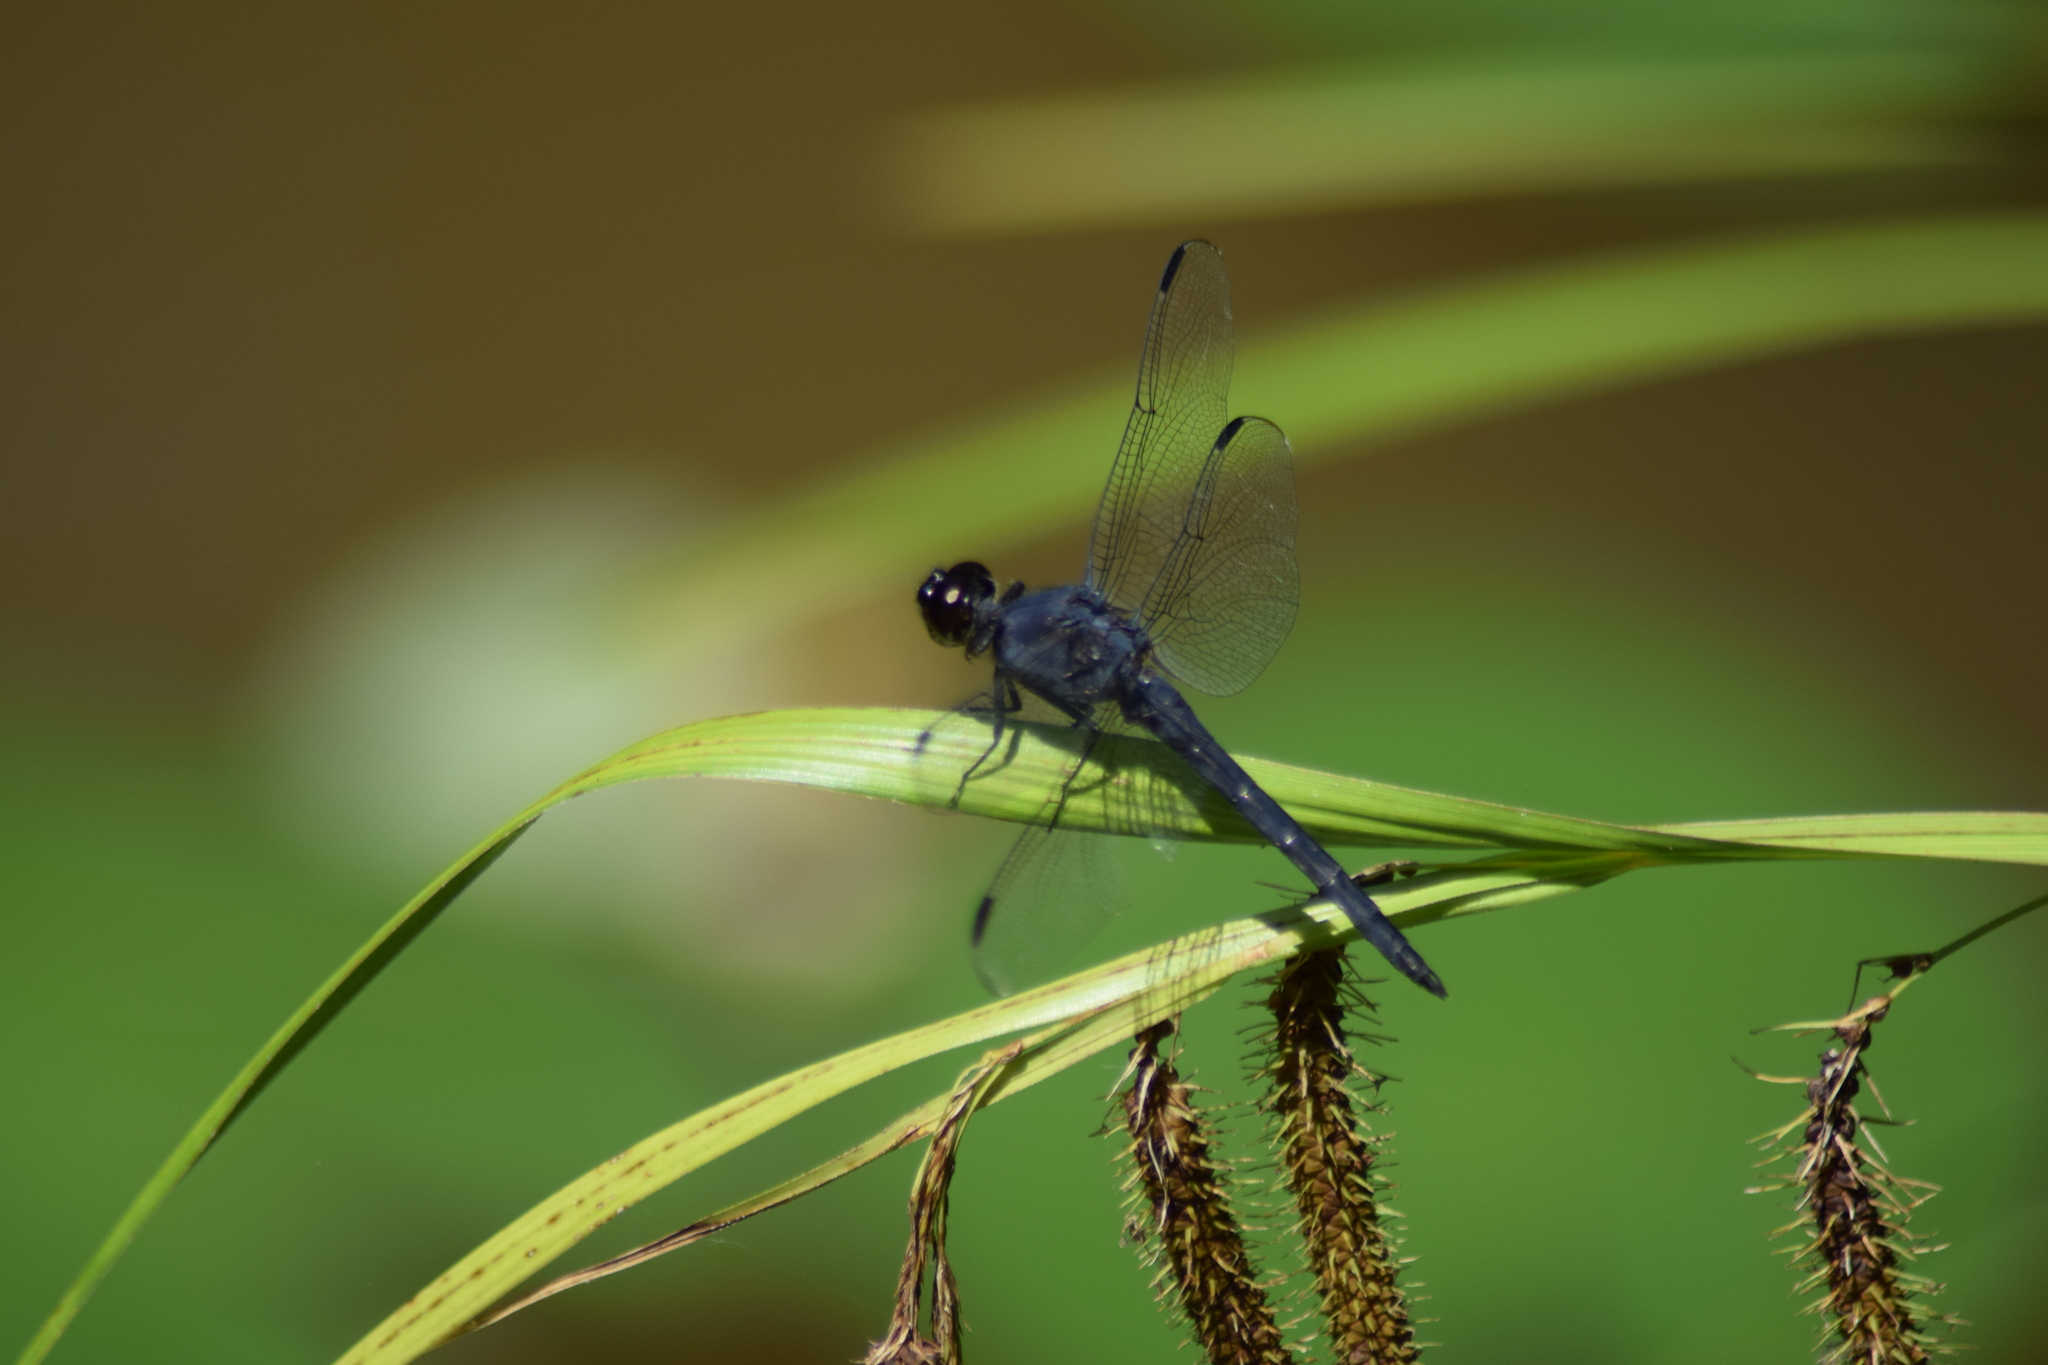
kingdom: Animalia
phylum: Arthropoda
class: Insecta
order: Odonata
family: Libellulidae
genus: Libellula
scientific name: Libellula incesta
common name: Slaty skimmer
